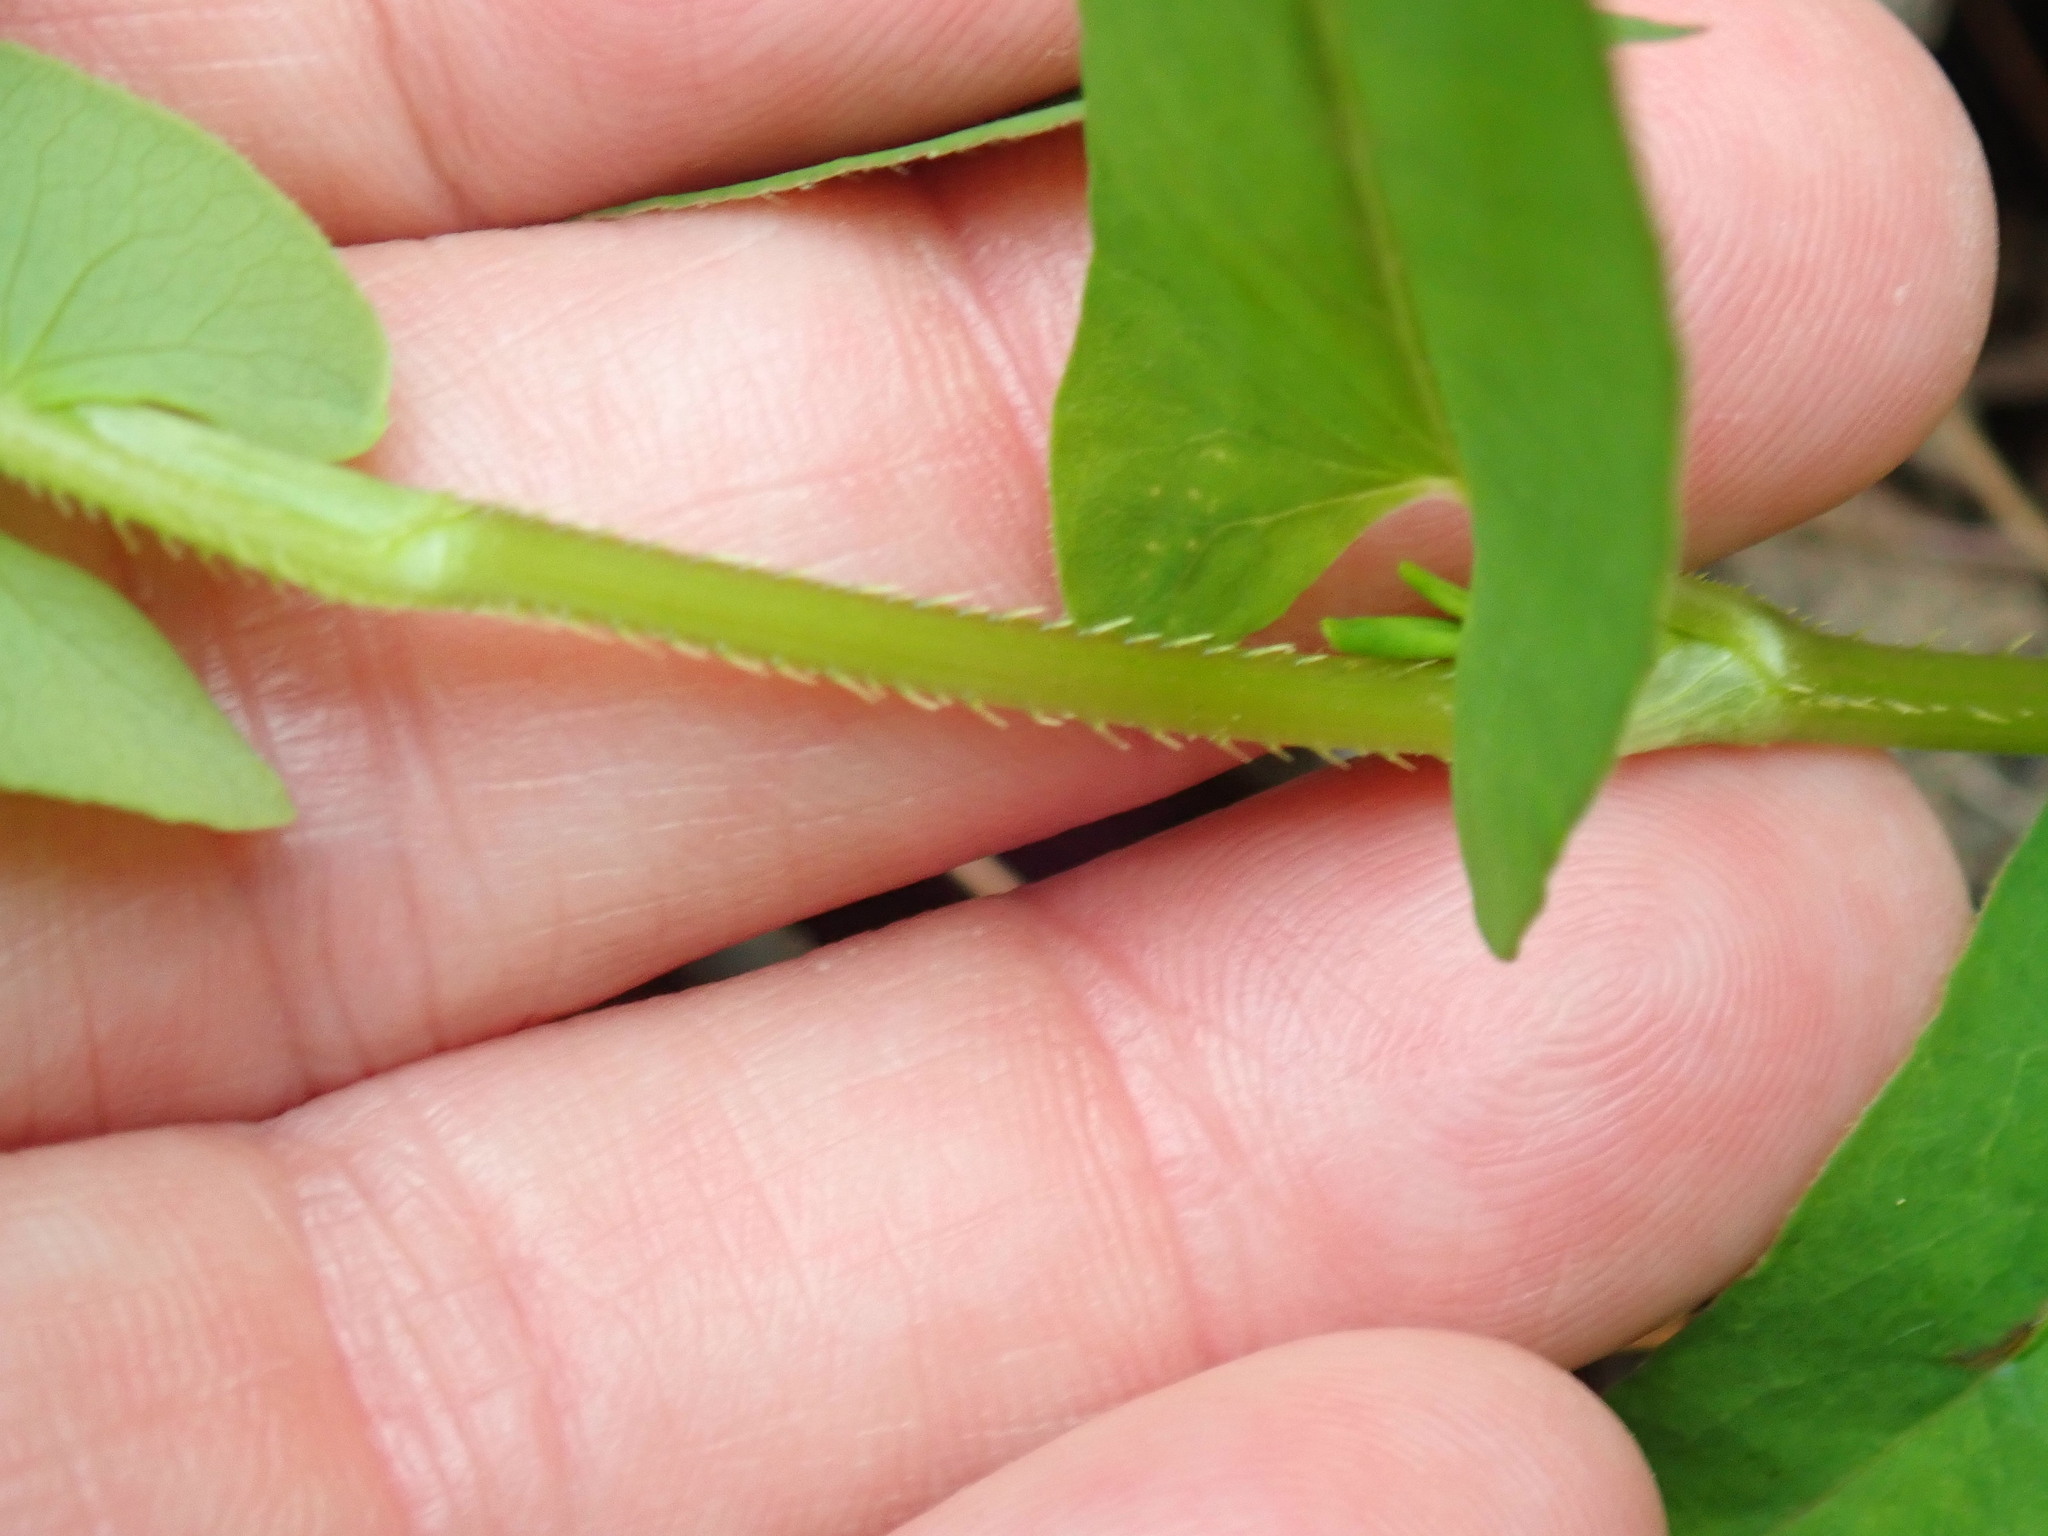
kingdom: Plantae
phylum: Tracheophyta
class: Magnoliopsida
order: Caryophyllales
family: Polygonaceae
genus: Persicaria
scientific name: Persicaria sagittata
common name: American tearthumb
